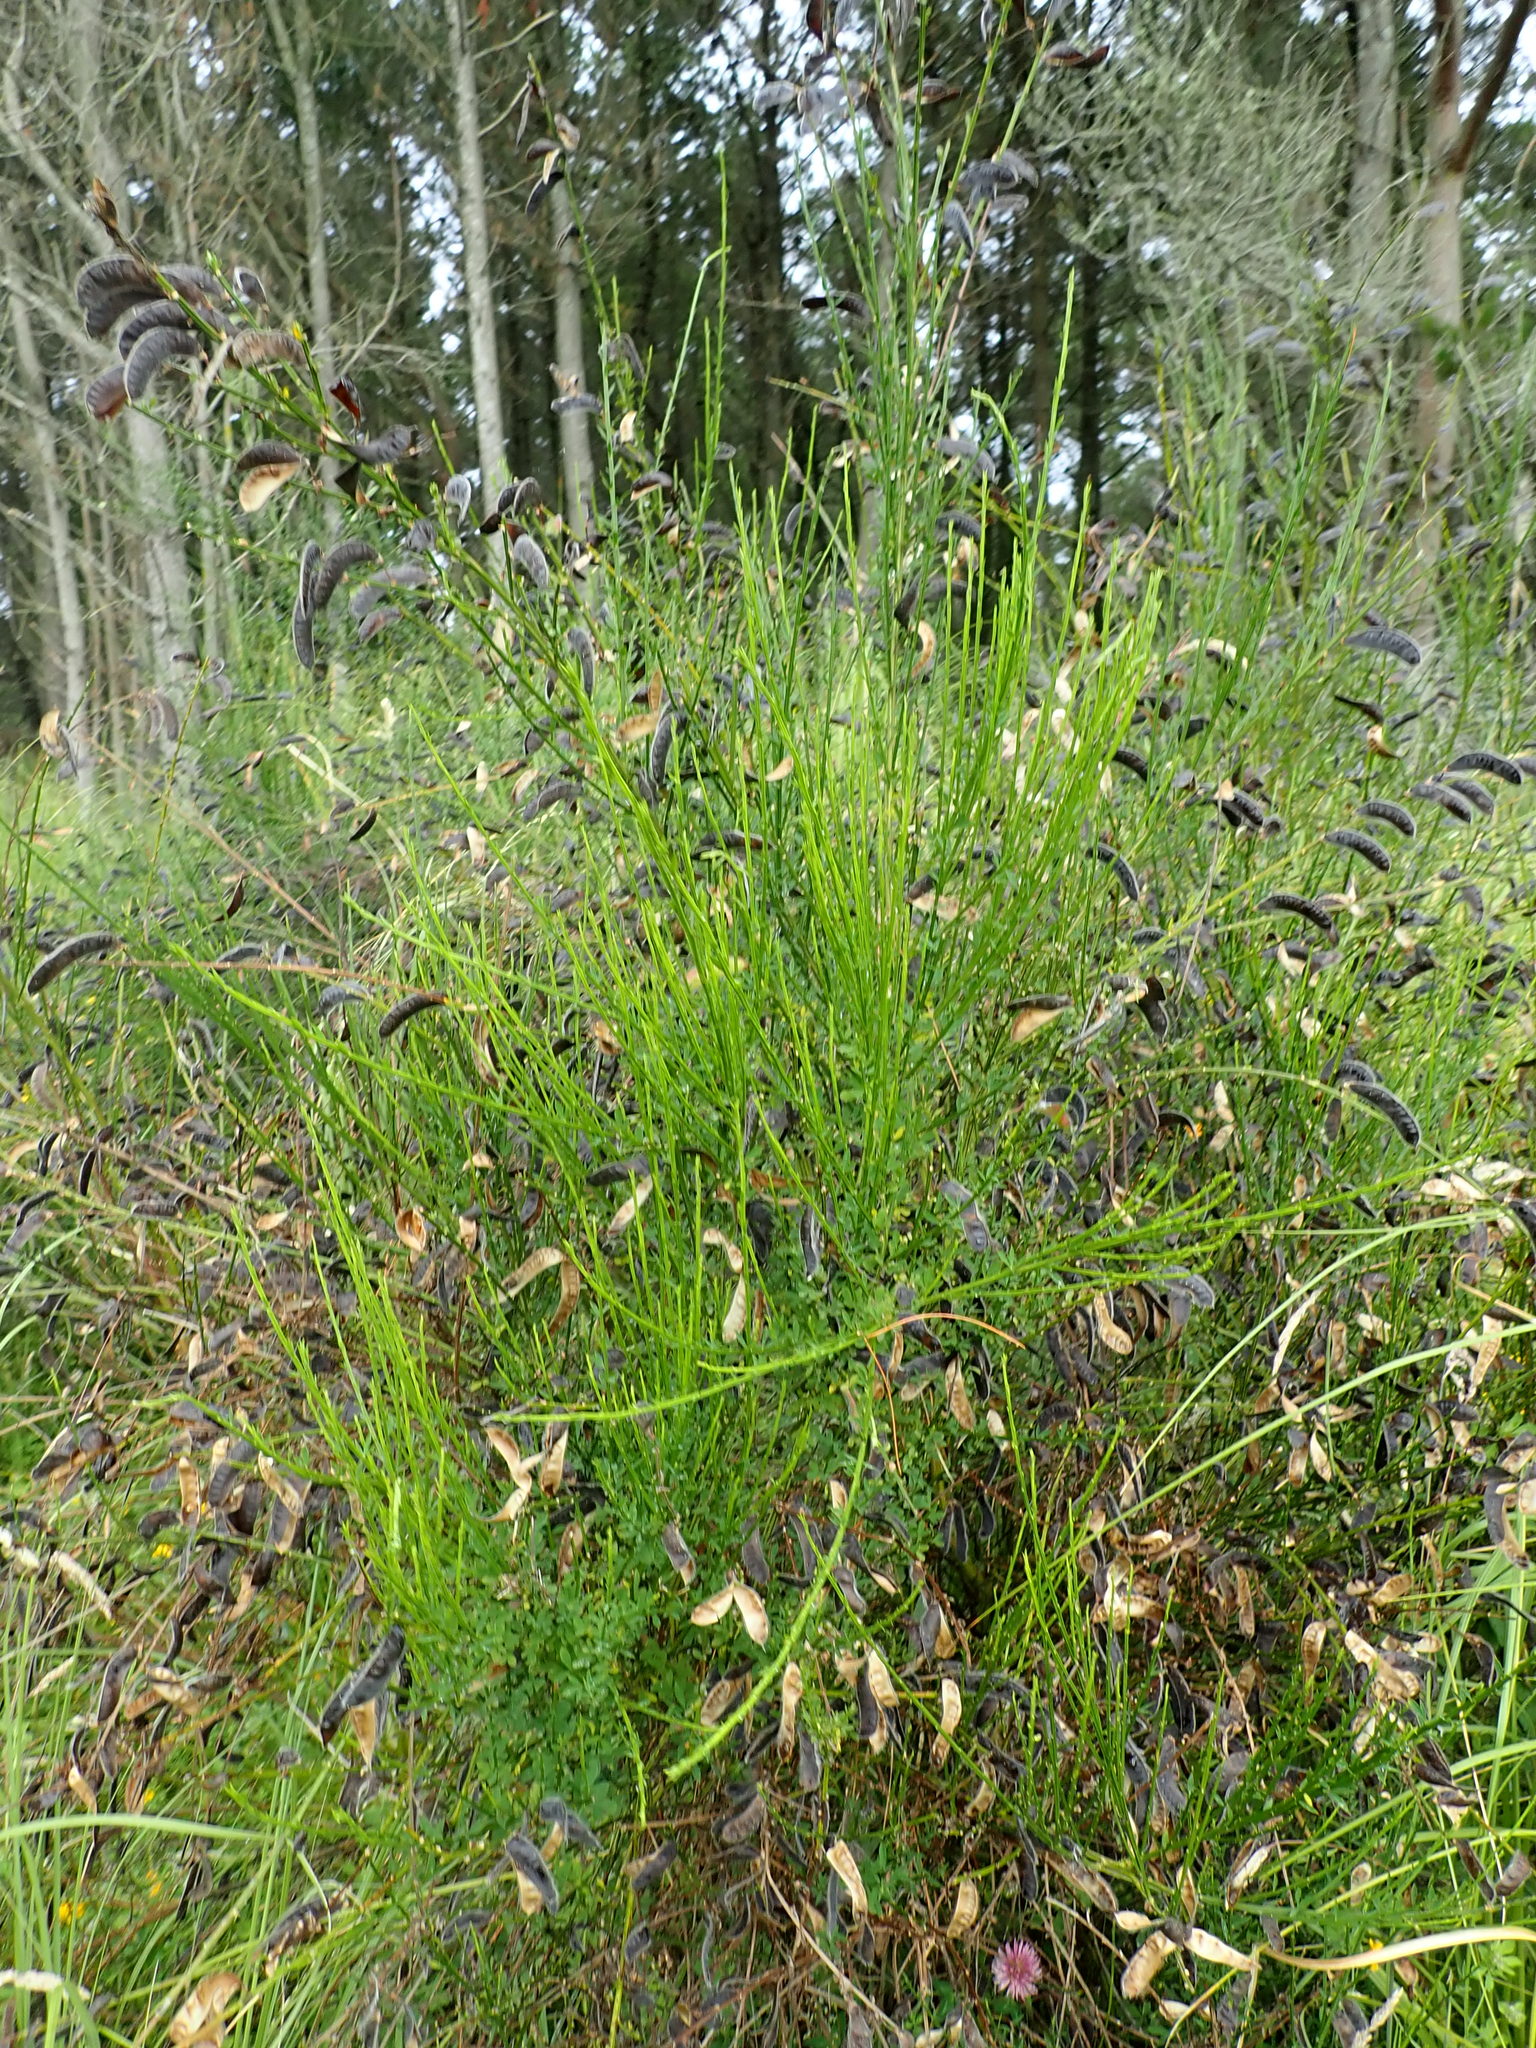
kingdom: Plantae
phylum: Tracheophyta
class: Magnoliopsida
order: Fabales
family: Fabaceae
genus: Cytisus
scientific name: Cytisus scoparius
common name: Scotch broom
